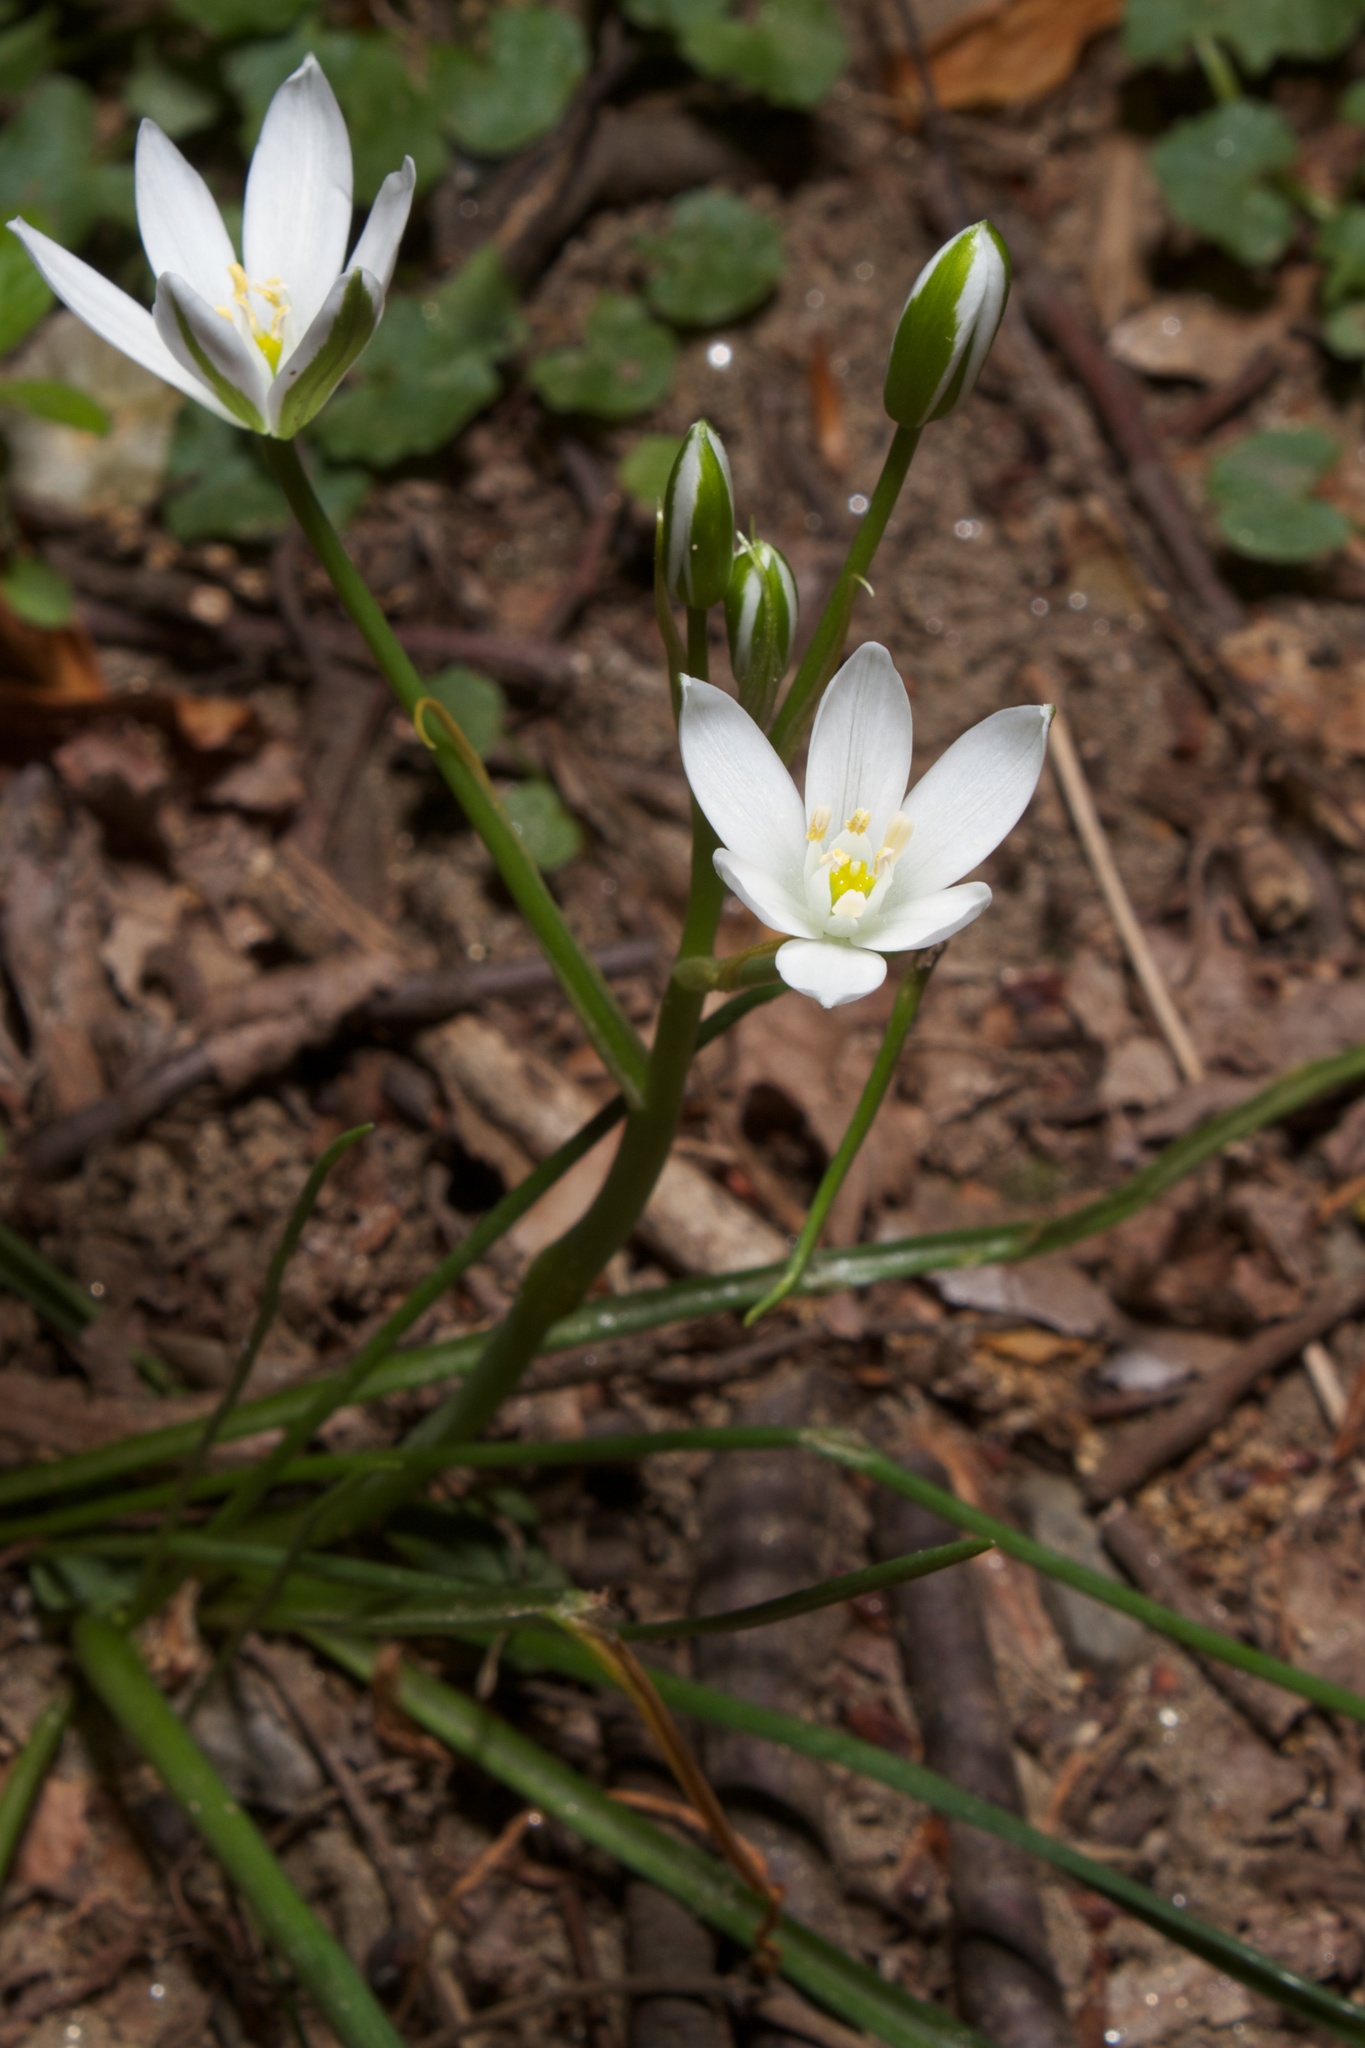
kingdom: Plantae
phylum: Tracheophyta
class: Liliopsida
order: Asparagales
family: Asparagaceae
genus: Ornithogalum
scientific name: Ornithogalum umbellatum
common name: Garden star-of-bethlehem
